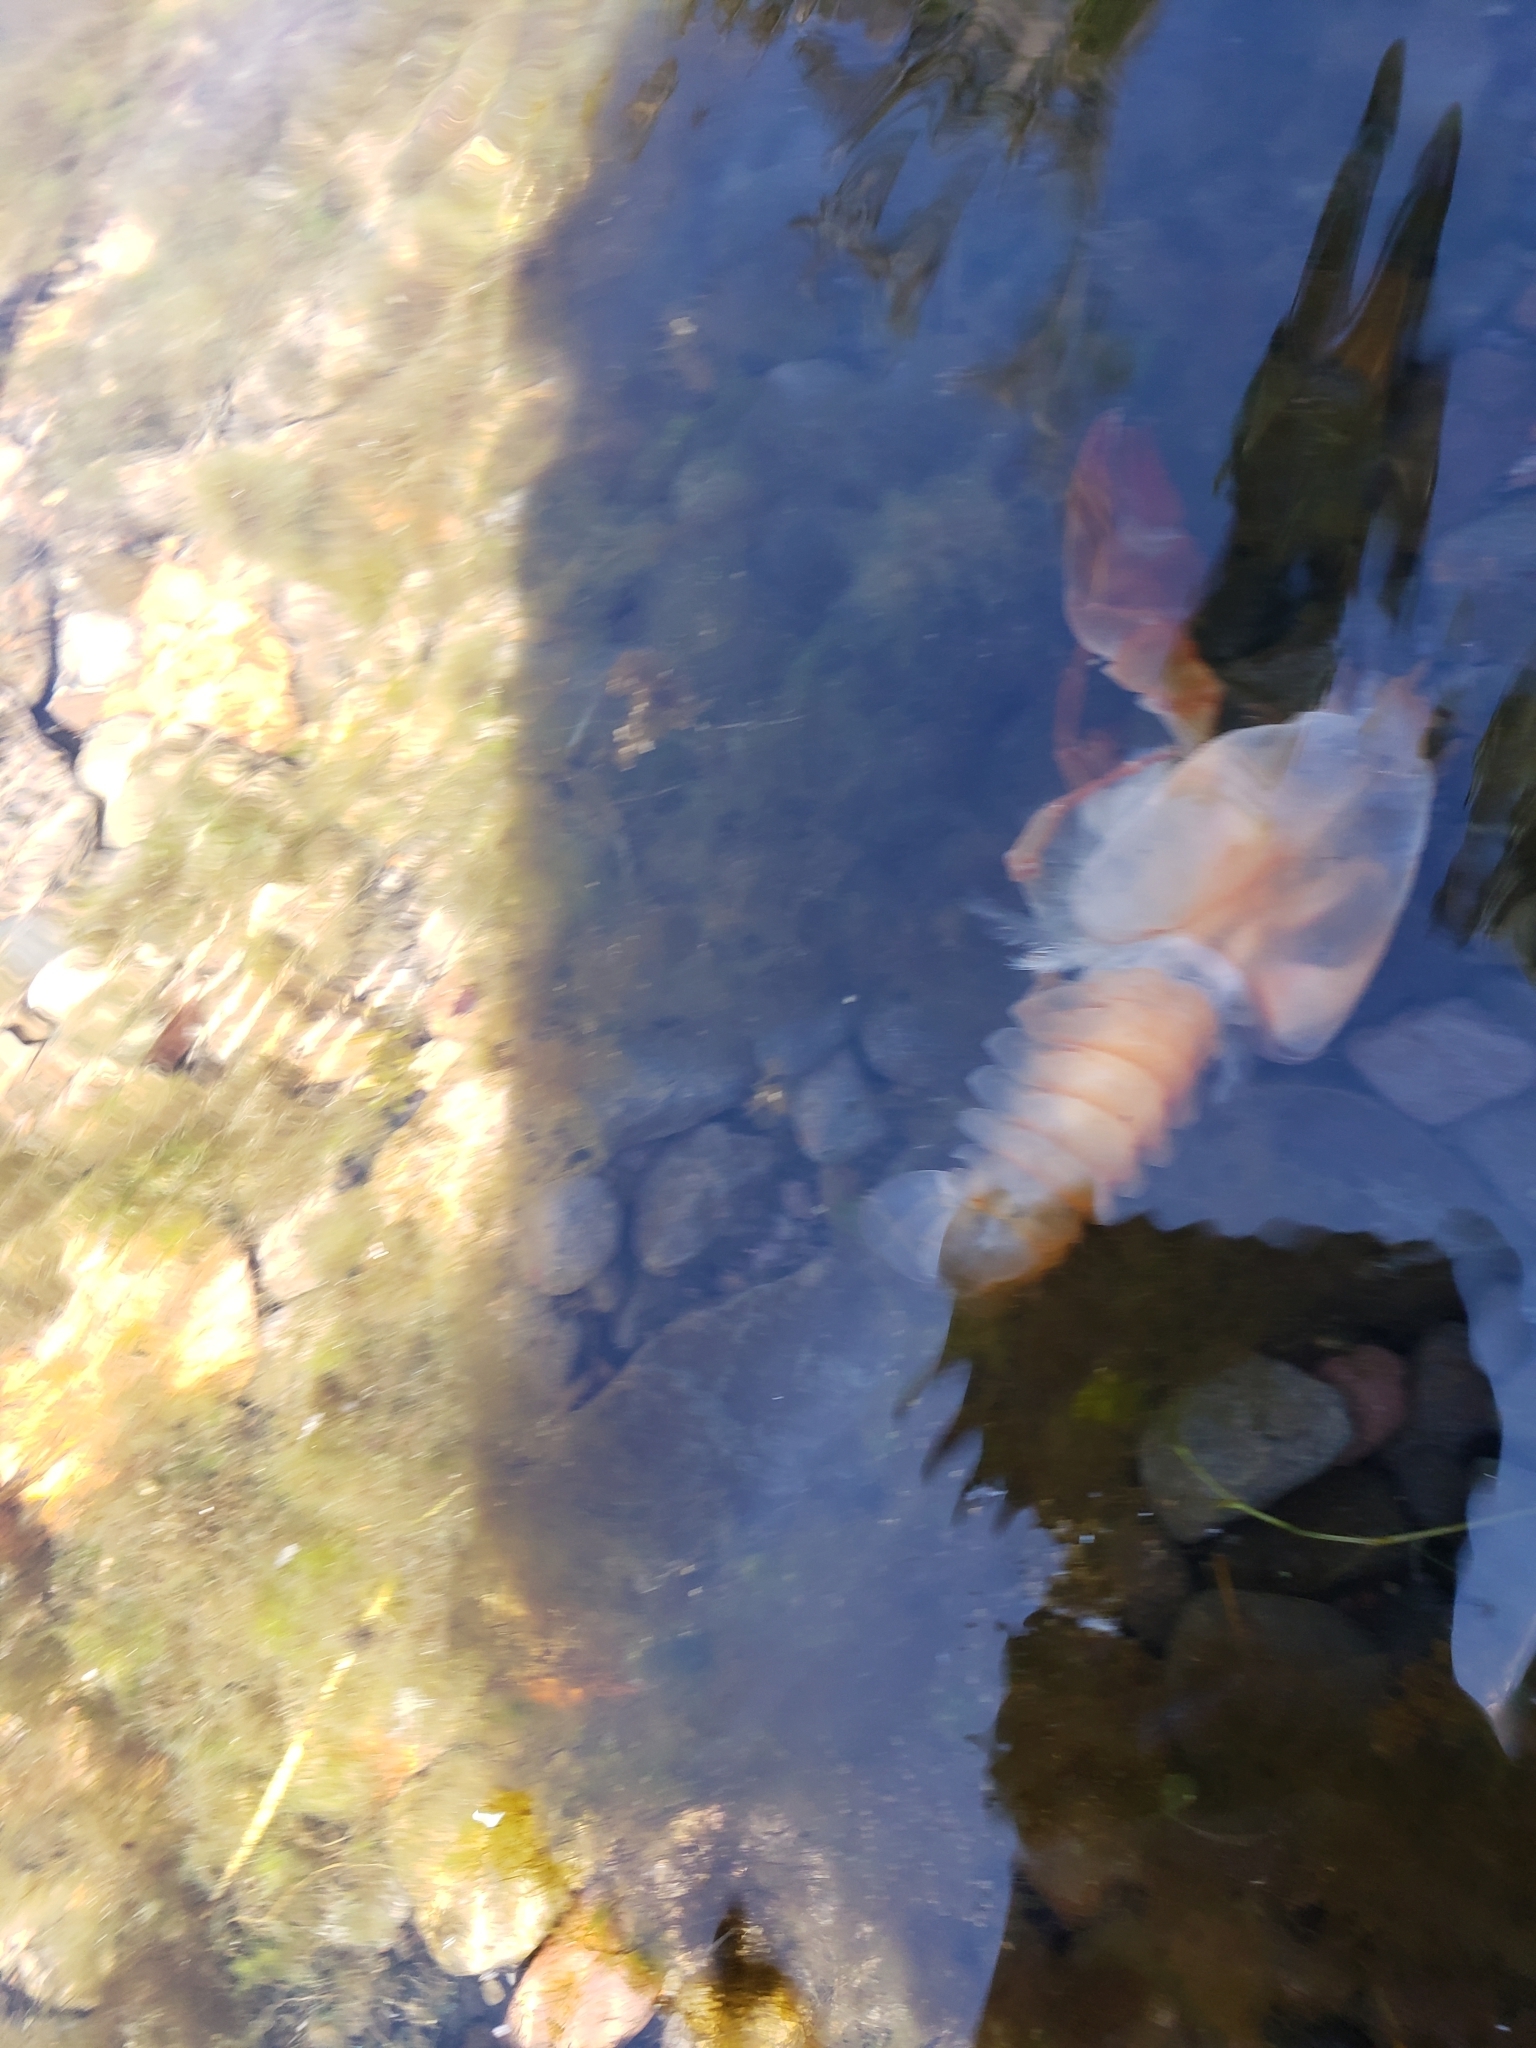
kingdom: Animalia
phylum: Arthropoda
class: Malacostraca
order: Decapoda
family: Astacidae
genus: Pacifastacus
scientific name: Pacifastacus leniusculus
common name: Signal crayfish
